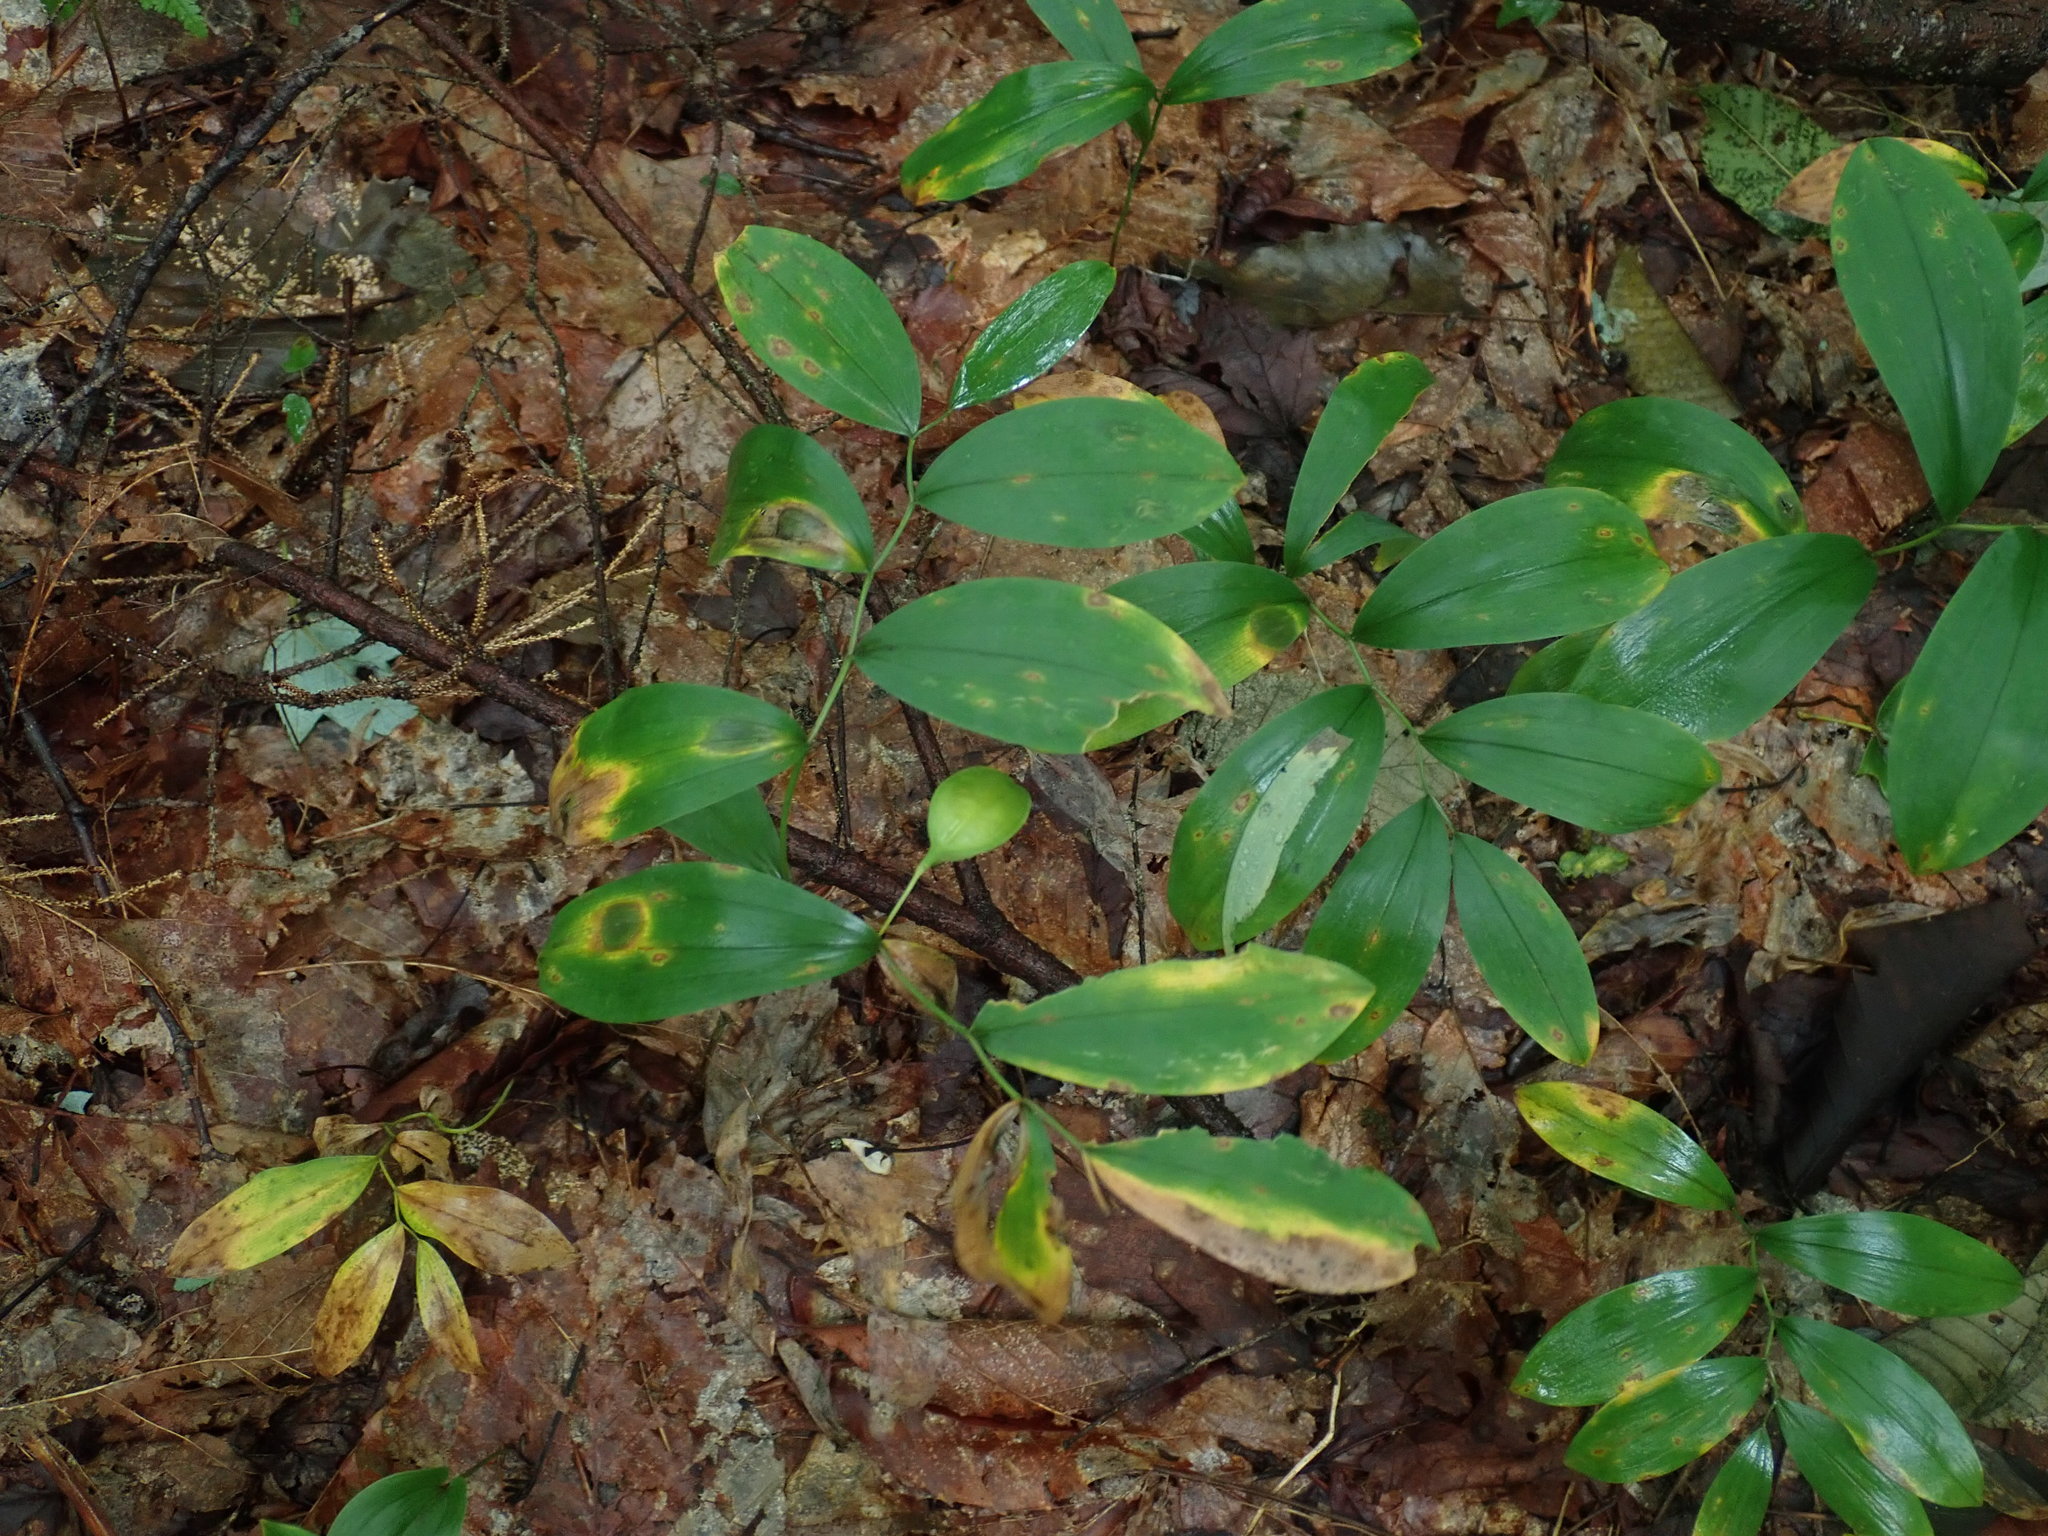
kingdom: Plantae
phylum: Tracheophyta
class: Liliopsida
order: Liliales
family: Colchicaceae
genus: Uvularia
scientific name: Uvularia sessilifolia
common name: Straw-lily
